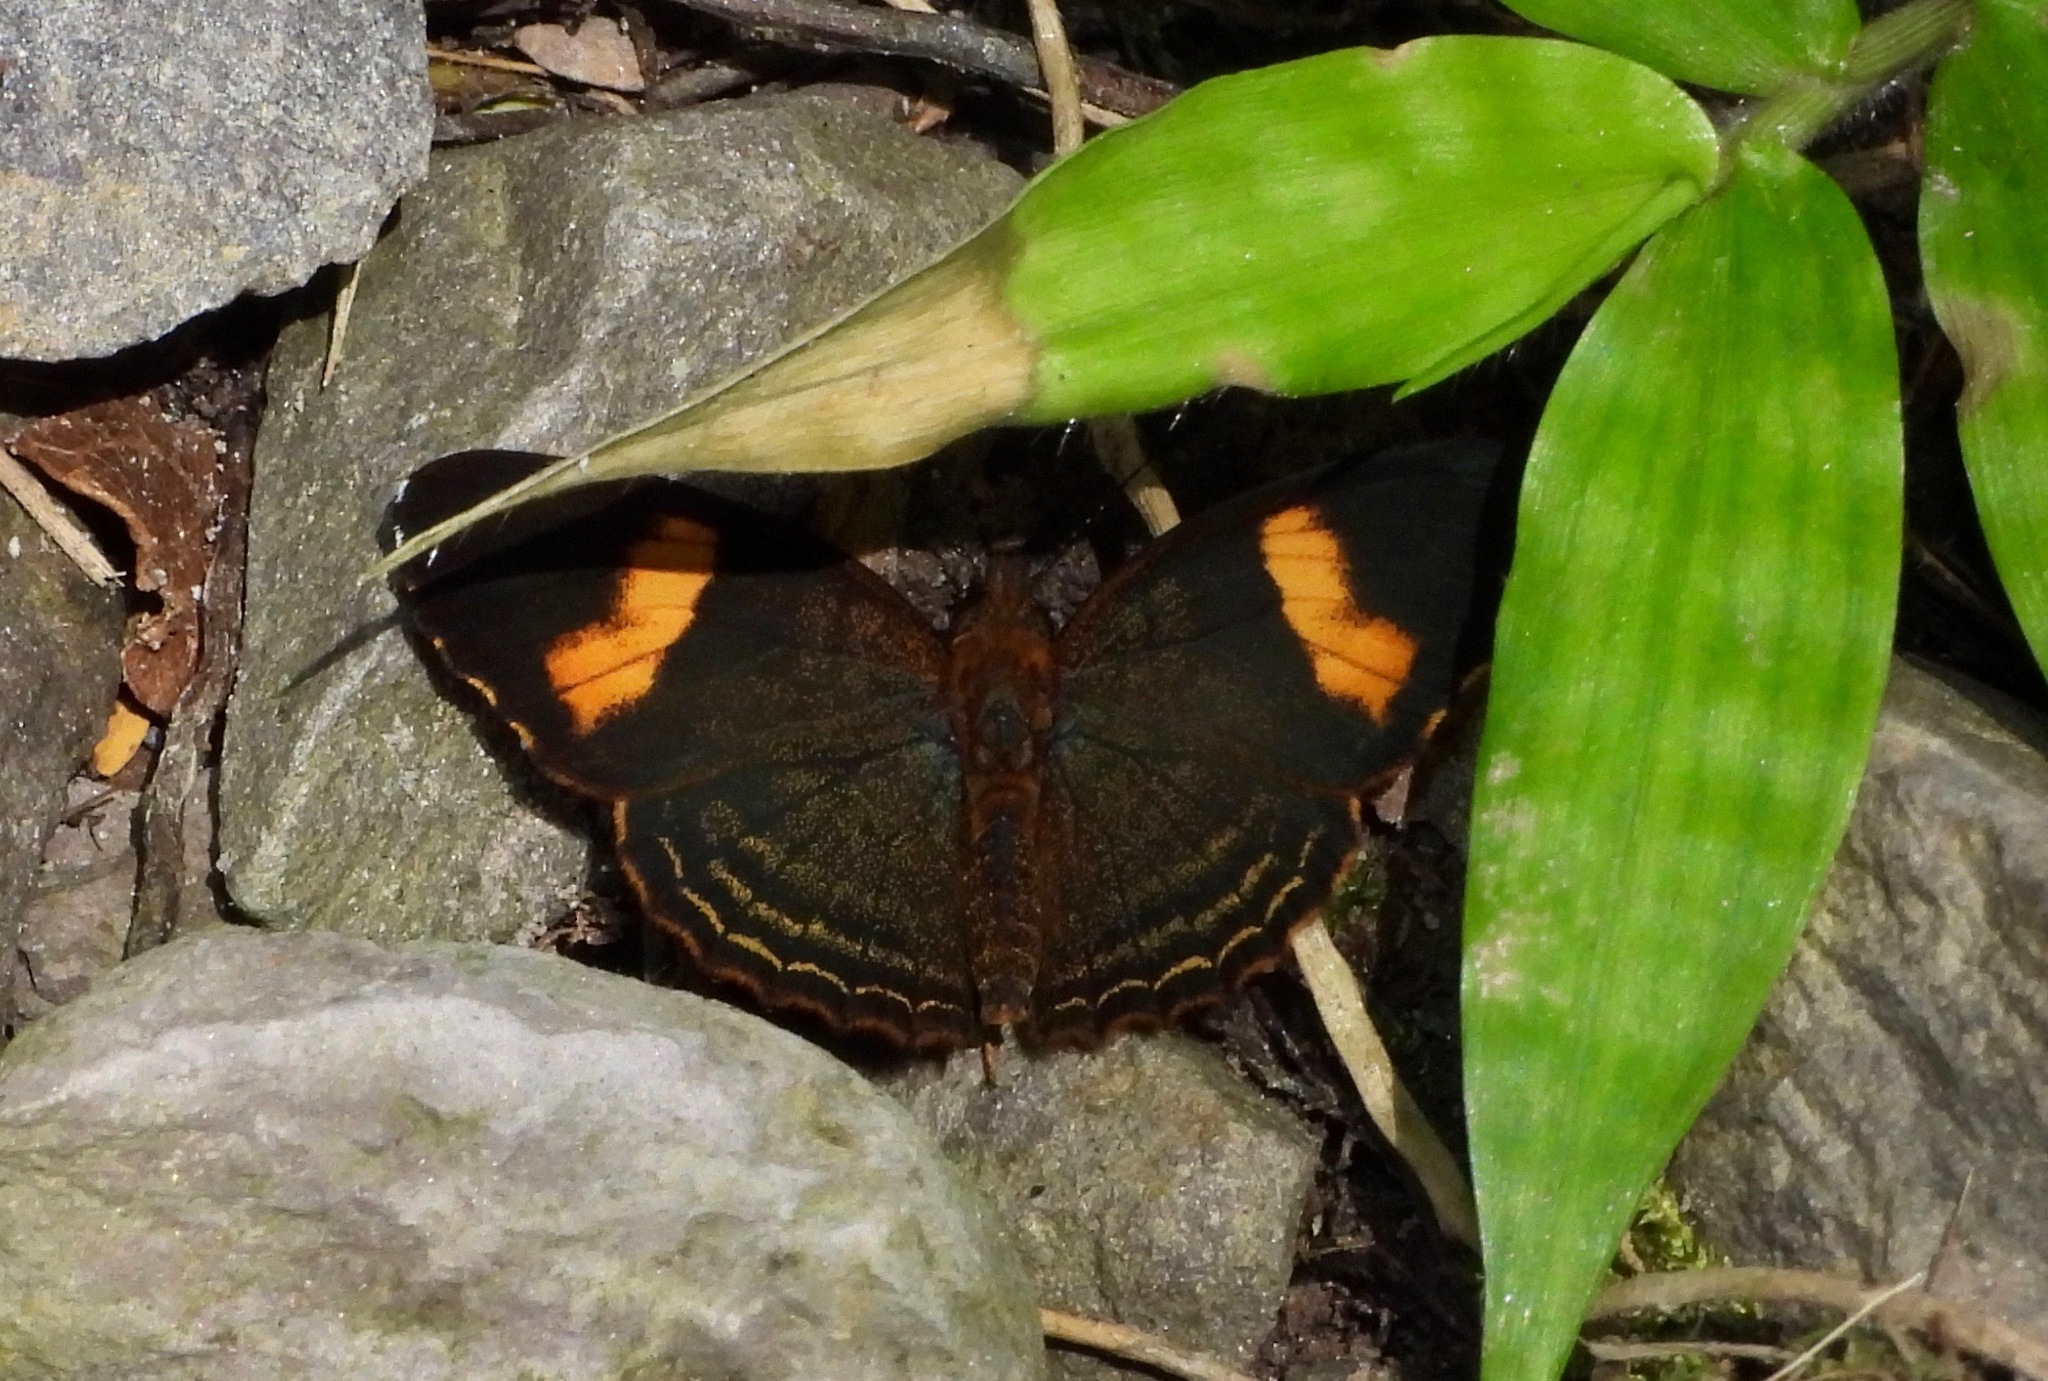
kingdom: Animalia
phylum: Arthropoda
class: Insecta
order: Lepidoptera
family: Nymphalidae
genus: Telenassa
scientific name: Telenassa jana
